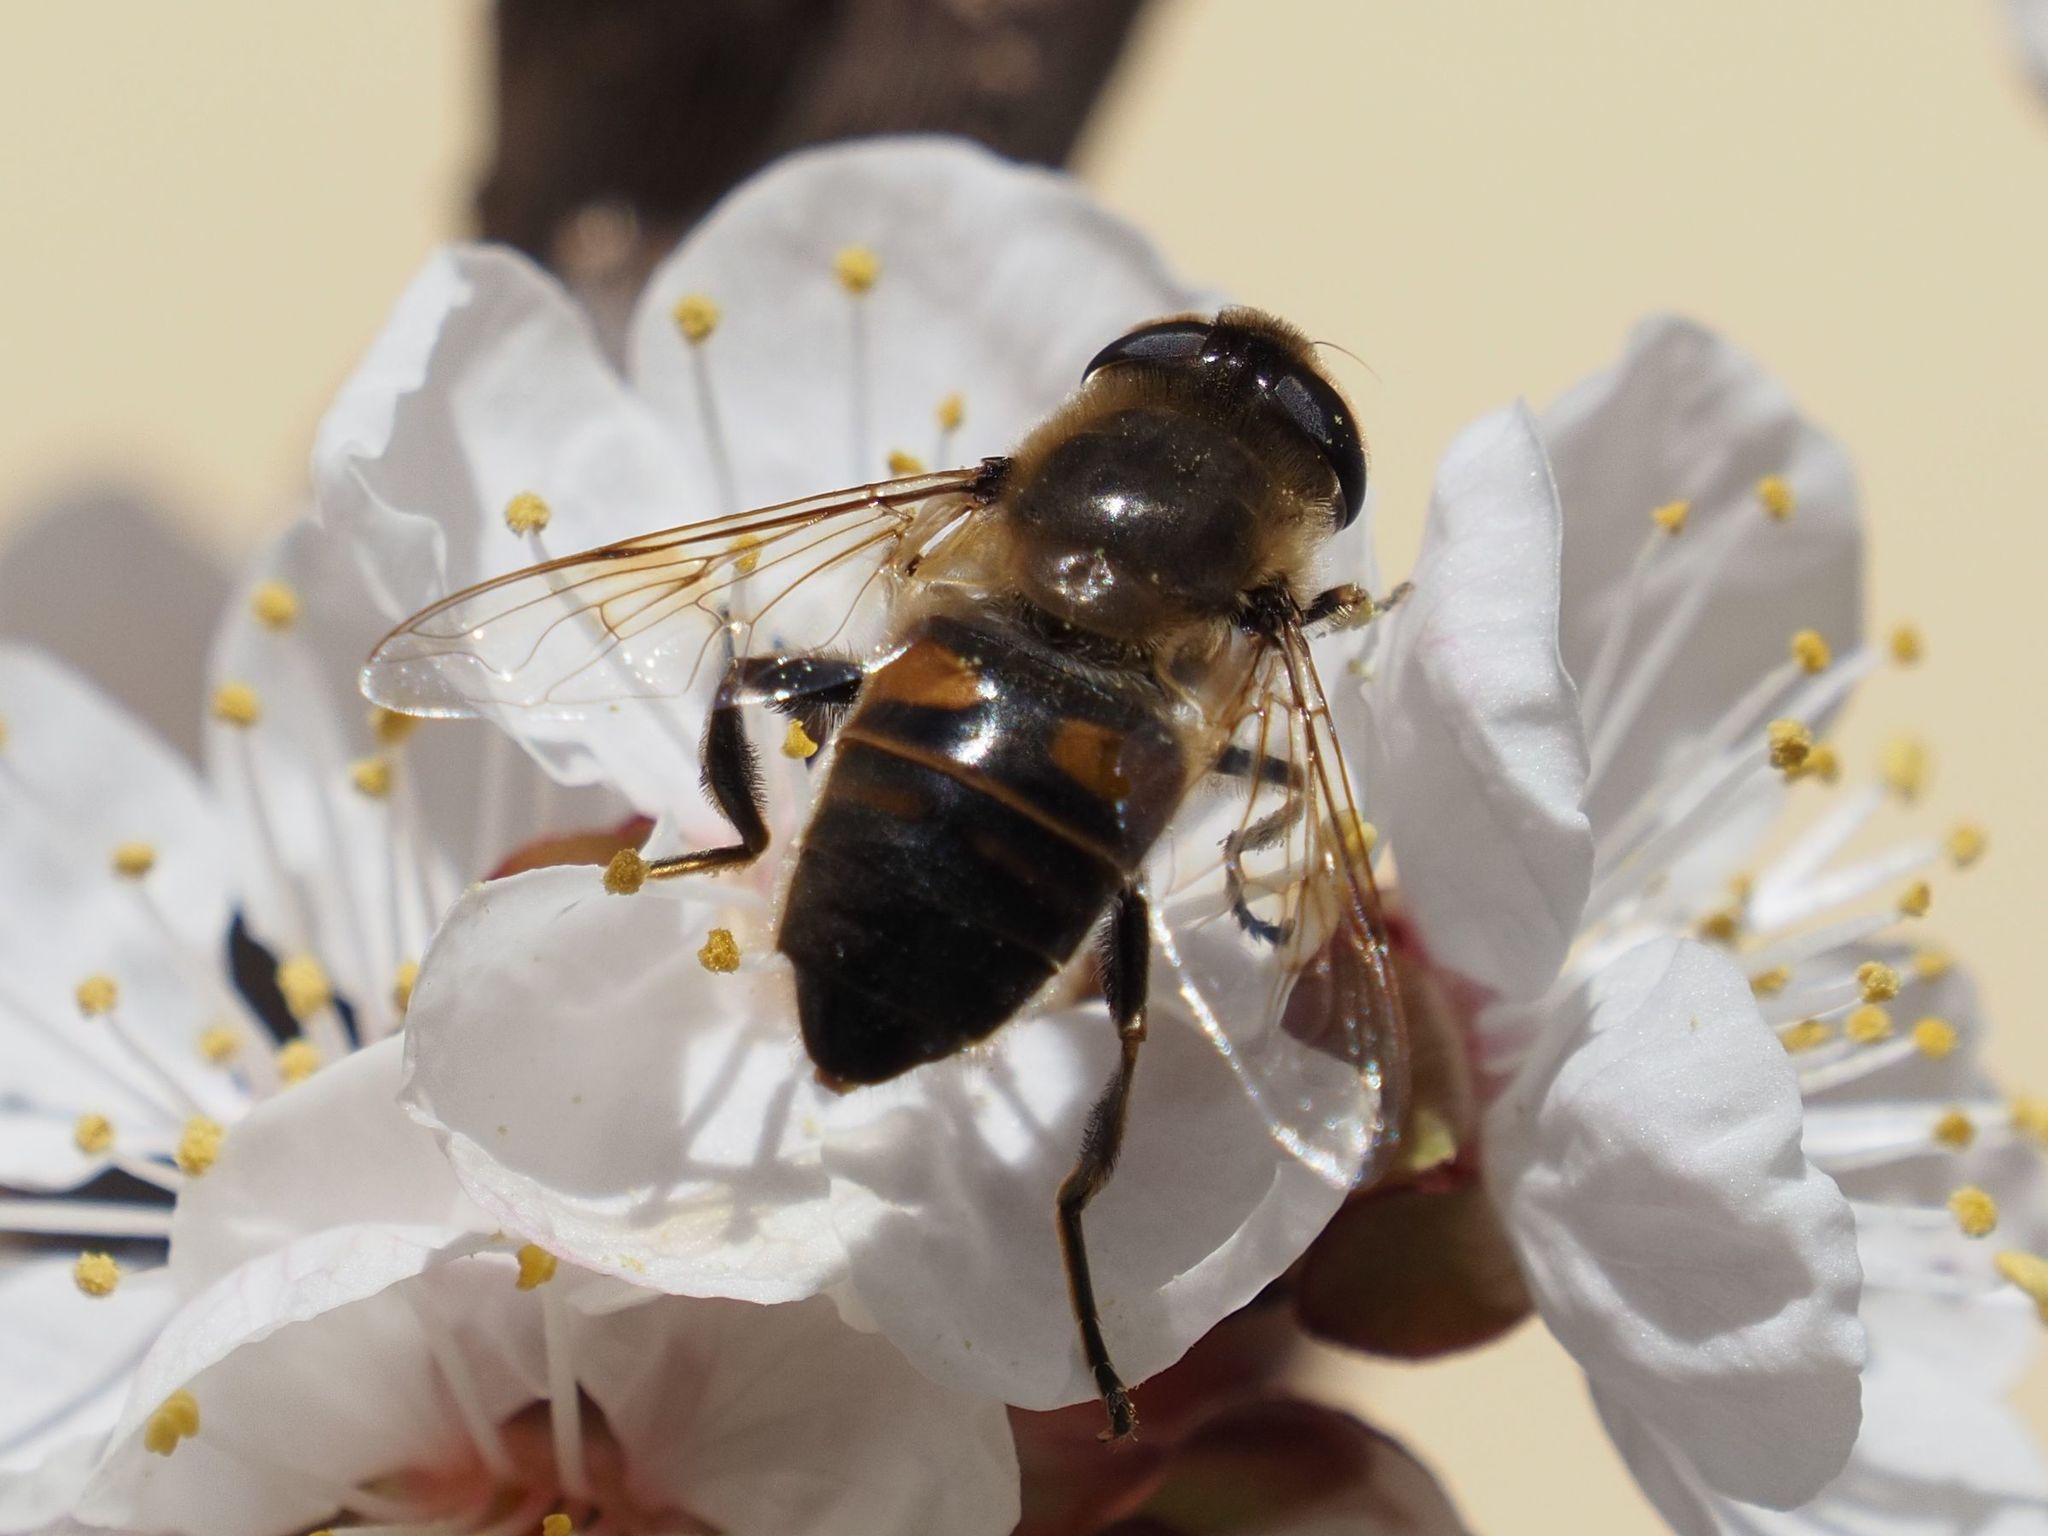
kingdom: Animalia
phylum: Arthropoda
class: Insecta
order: Diptera
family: Syrphidae
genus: Eristalis
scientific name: Eristalis tenax
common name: Drone fly
